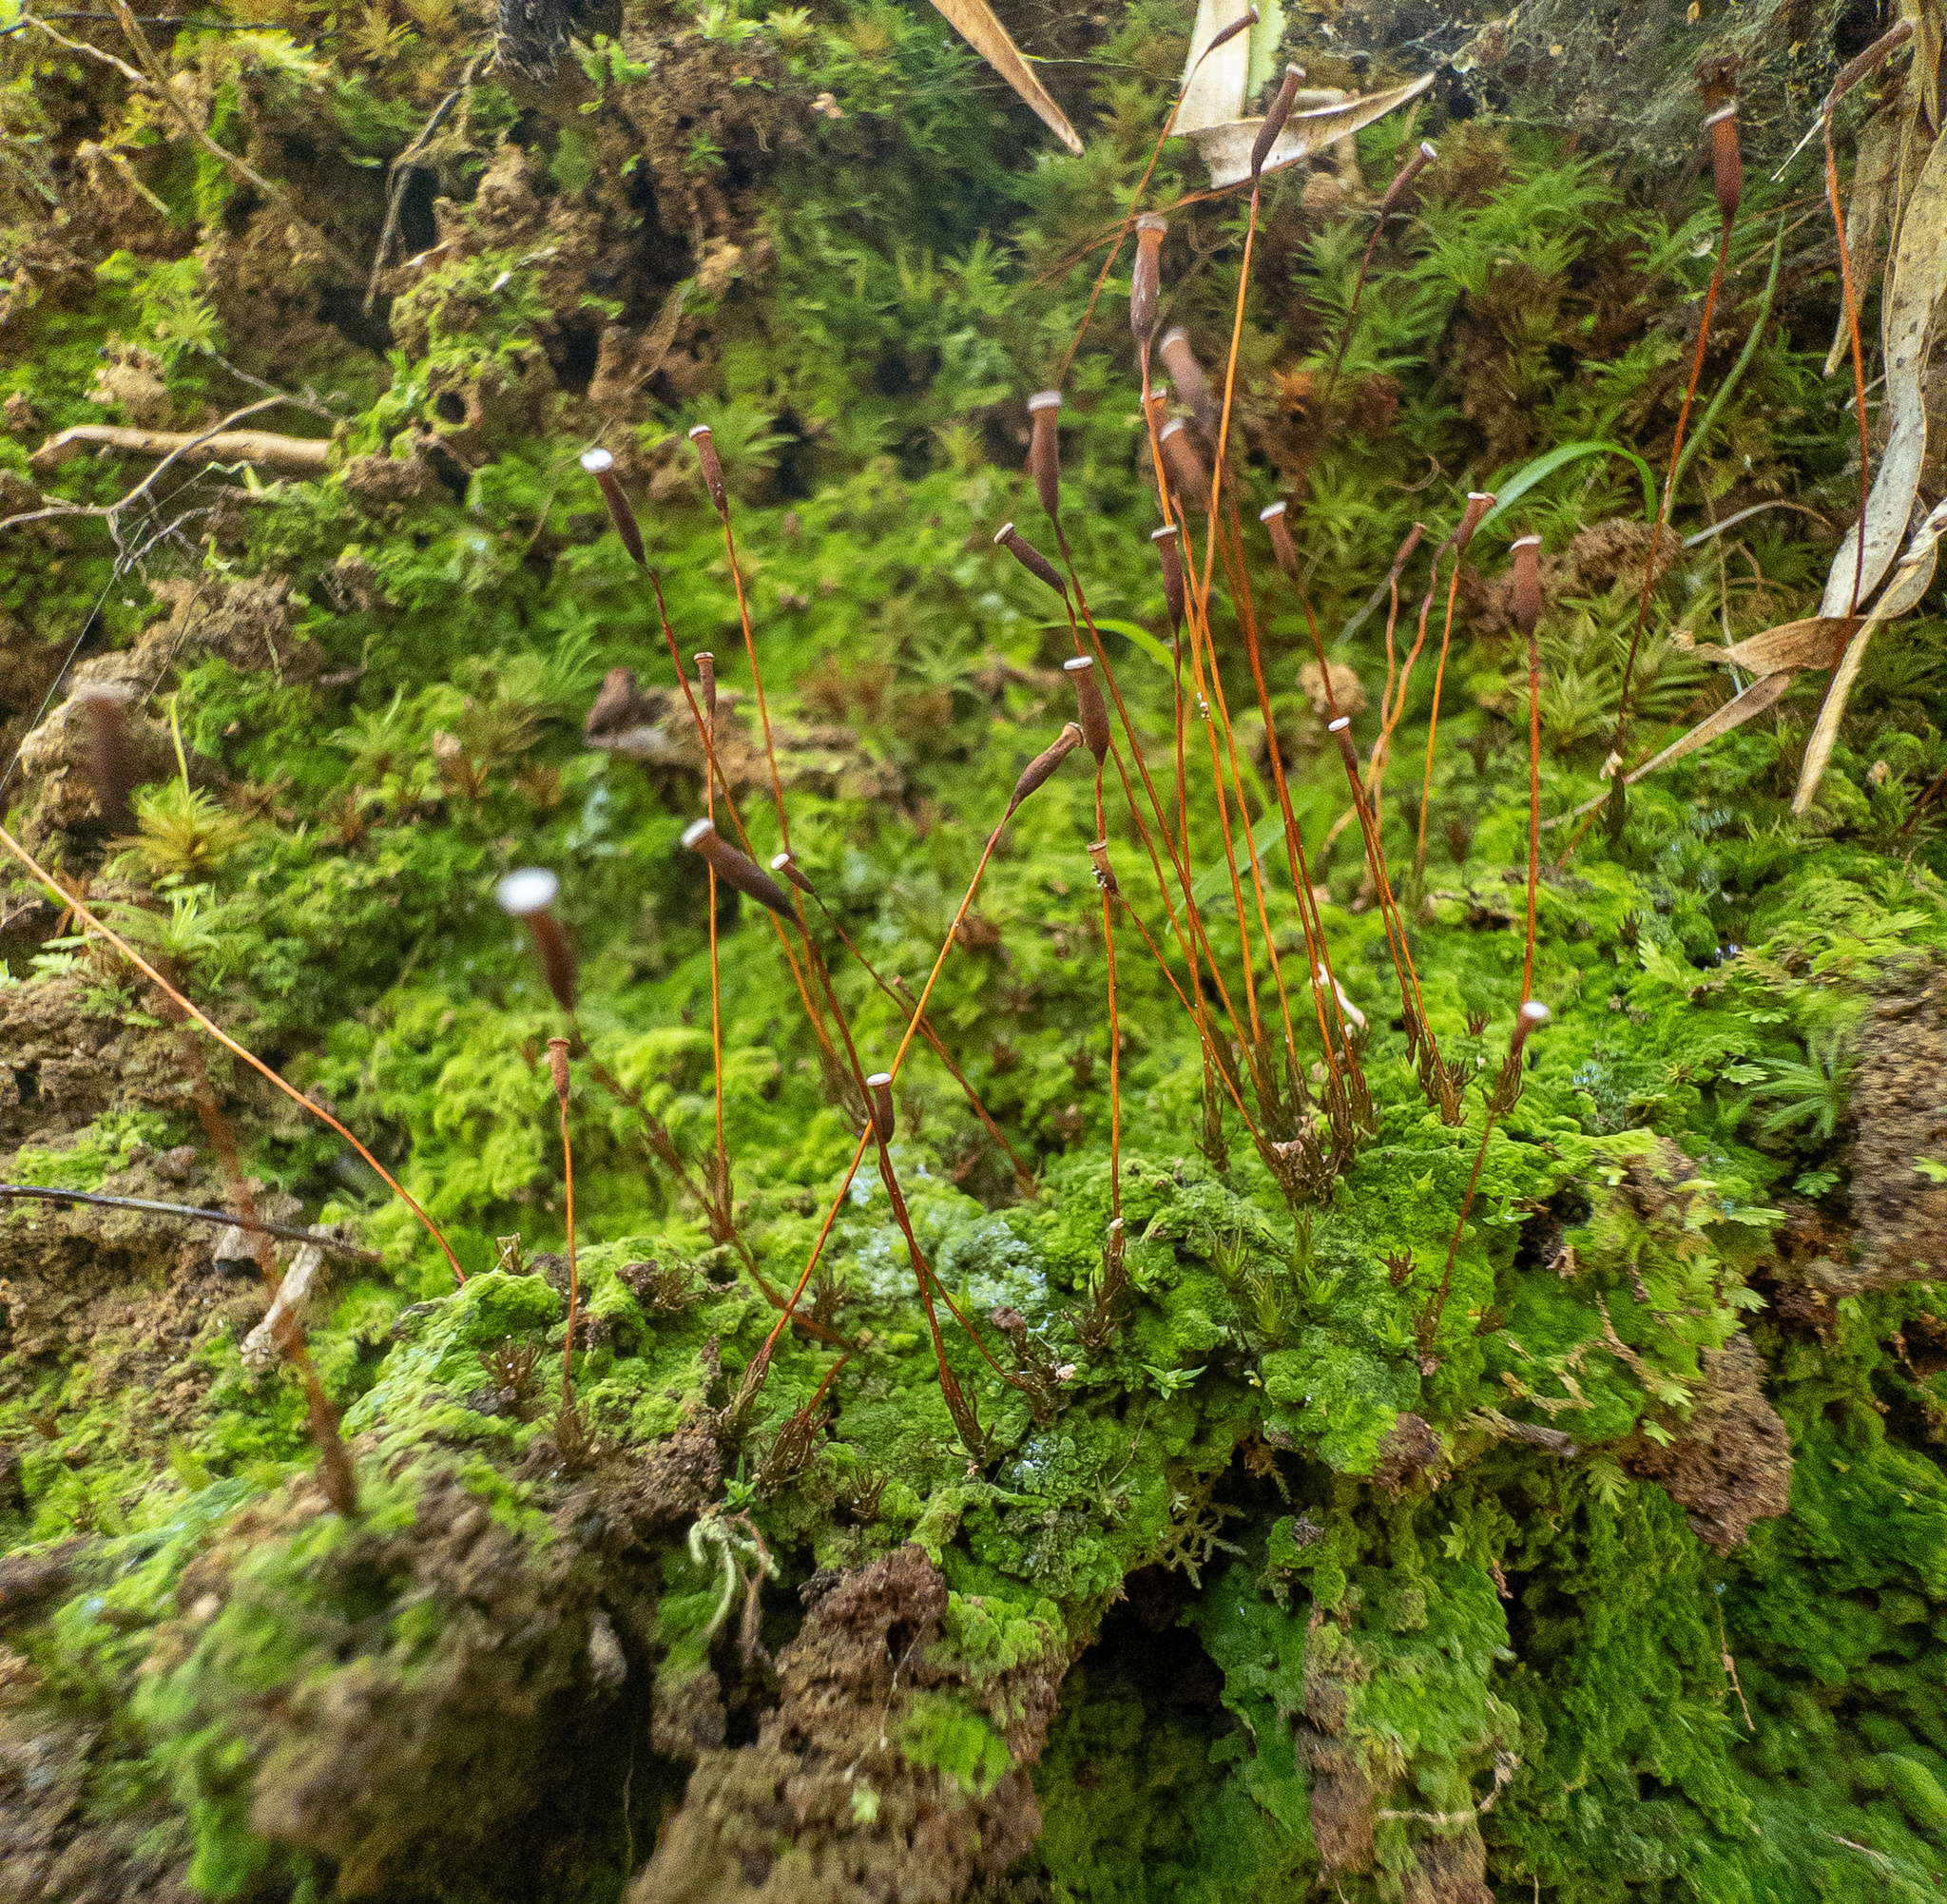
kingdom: Plantae
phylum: Bryophyta
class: Polytrichopsida
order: Polytrichales
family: Polytrichaceae
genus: Pogonatum
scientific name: Pogonatum pensilvanicum
